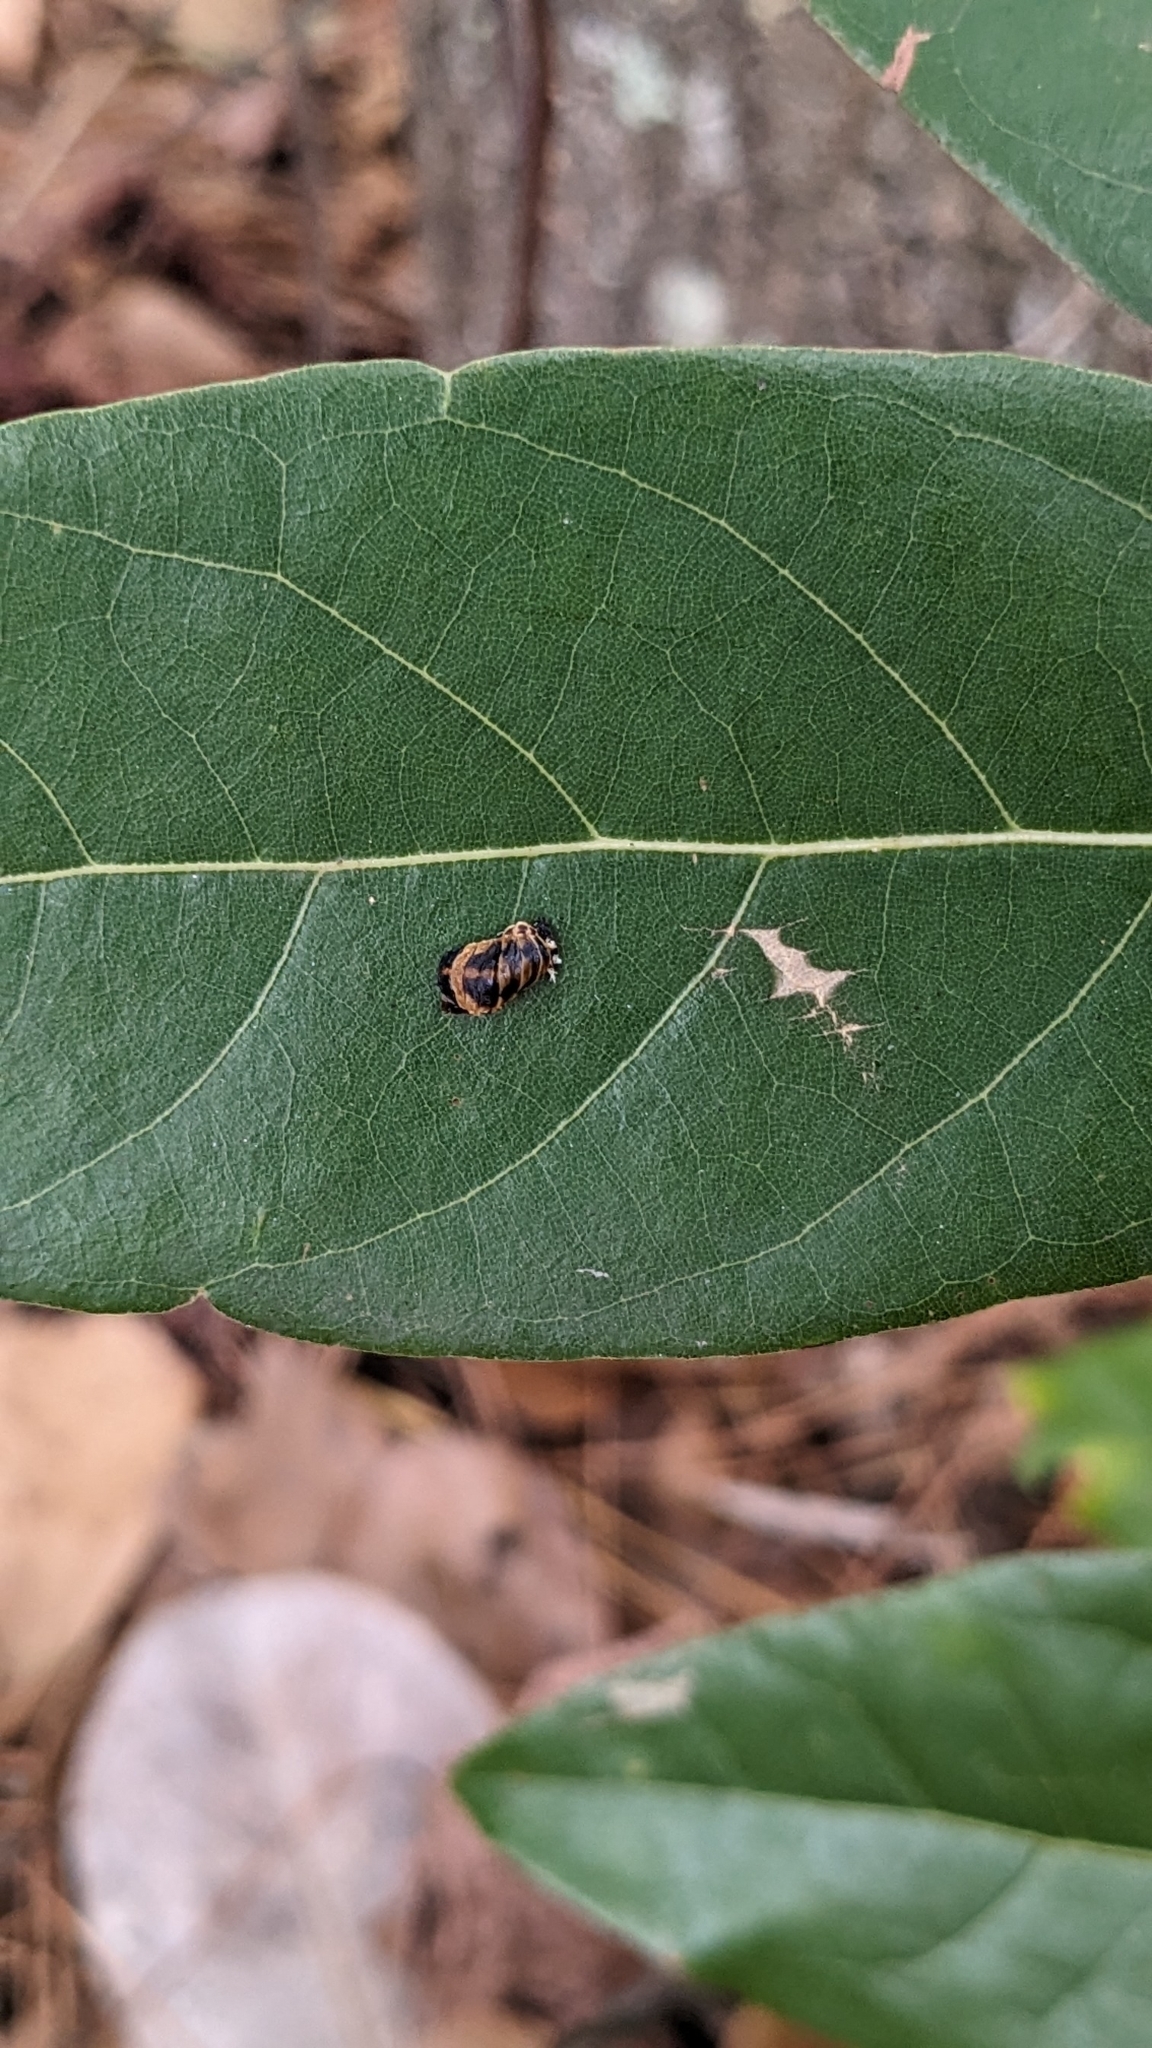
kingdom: Animalia
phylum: Arthropoda
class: Insecta
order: Coleoptera
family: Coccinellidae
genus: Harmonia
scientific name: Harmonia axyridis
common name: Harlequin ladybird
